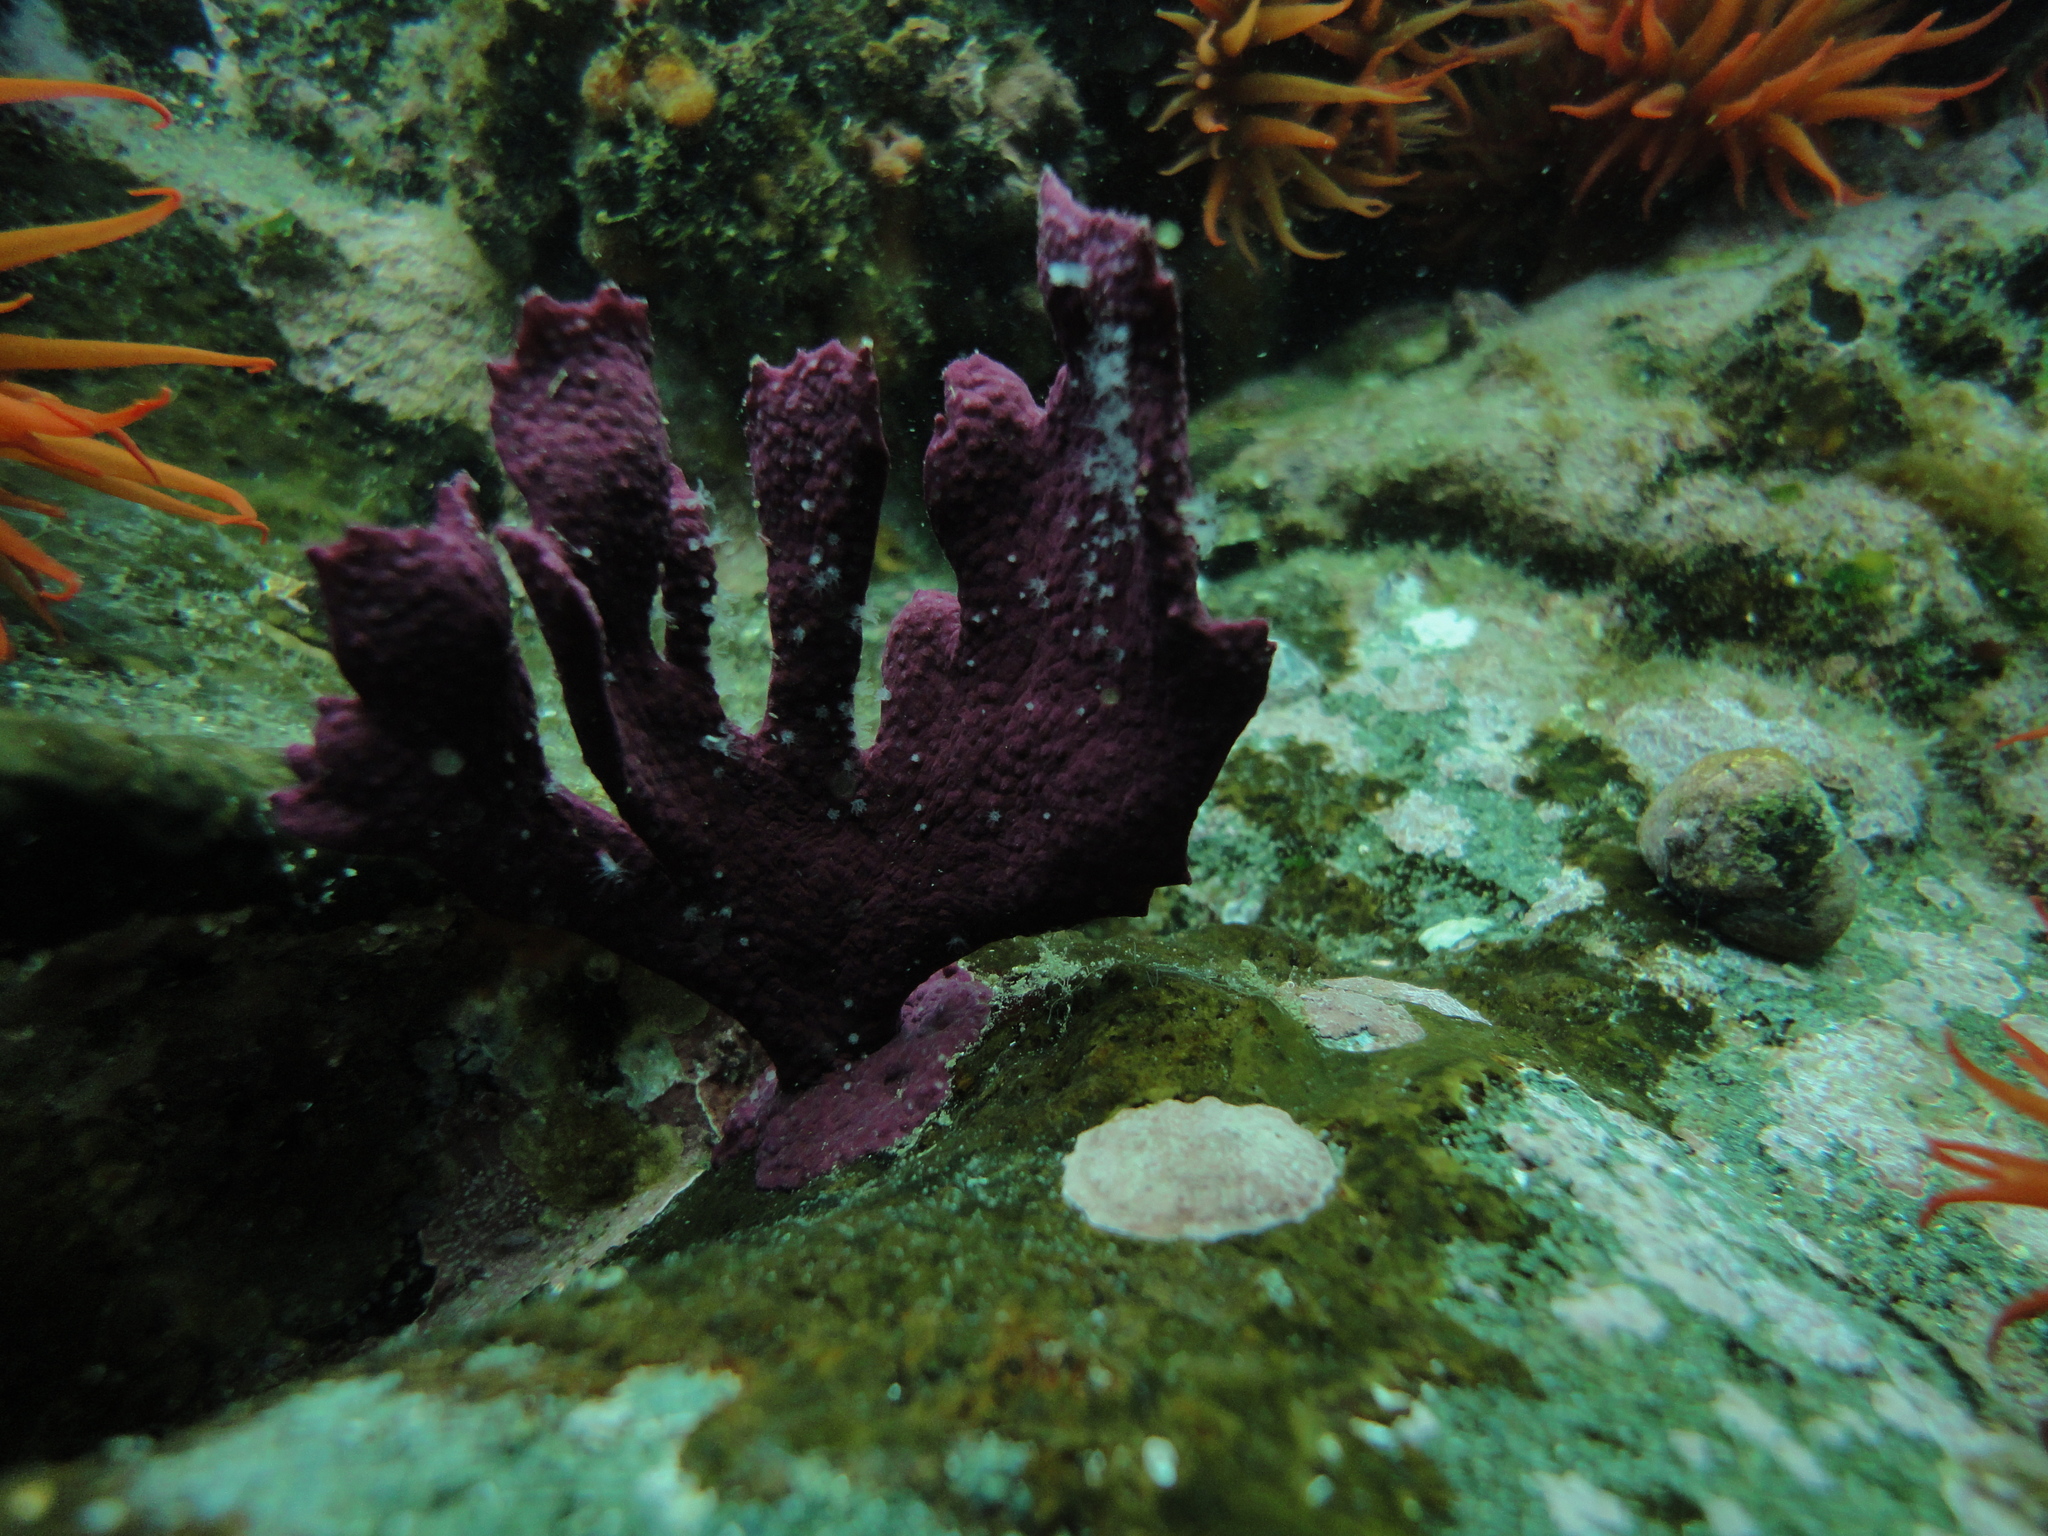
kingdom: Animalia
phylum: Cnidaria
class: Anthozoa
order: Malacalcyonacea
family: Gorgoniidae
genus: Phycogorgia
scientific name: Phycogorgia fucata
